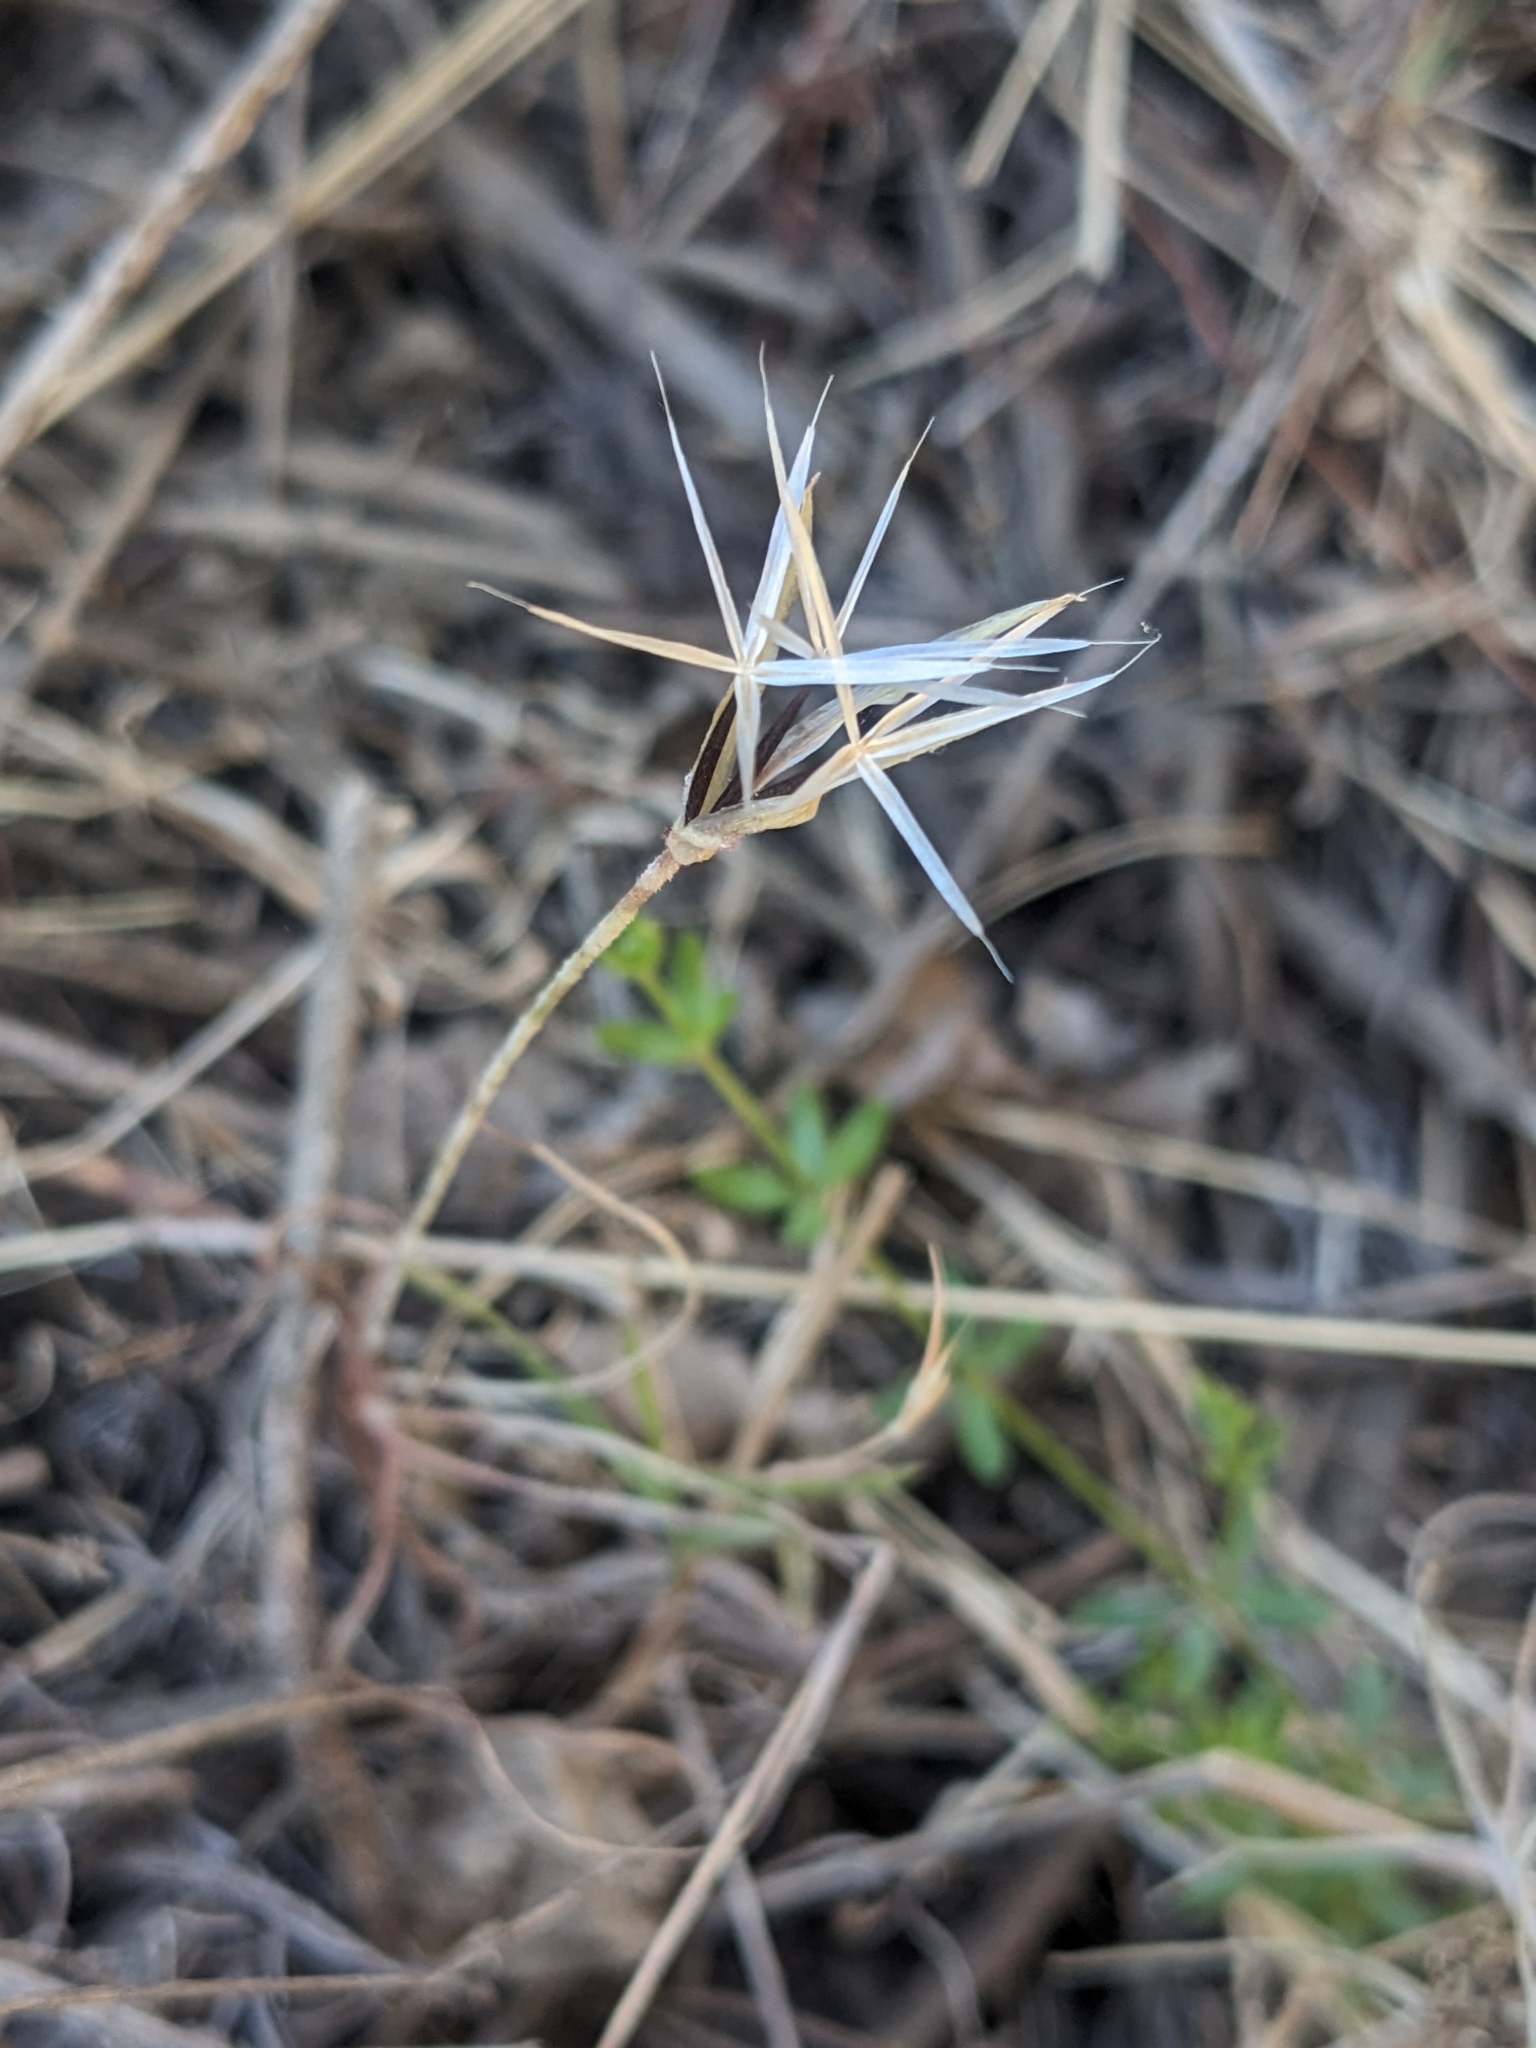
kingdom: Plantae
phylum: Tracheophyta
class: Magnoliopsida
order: Asterales
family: Asteraceae
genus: Microseris
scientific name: Microseris lindleyi
